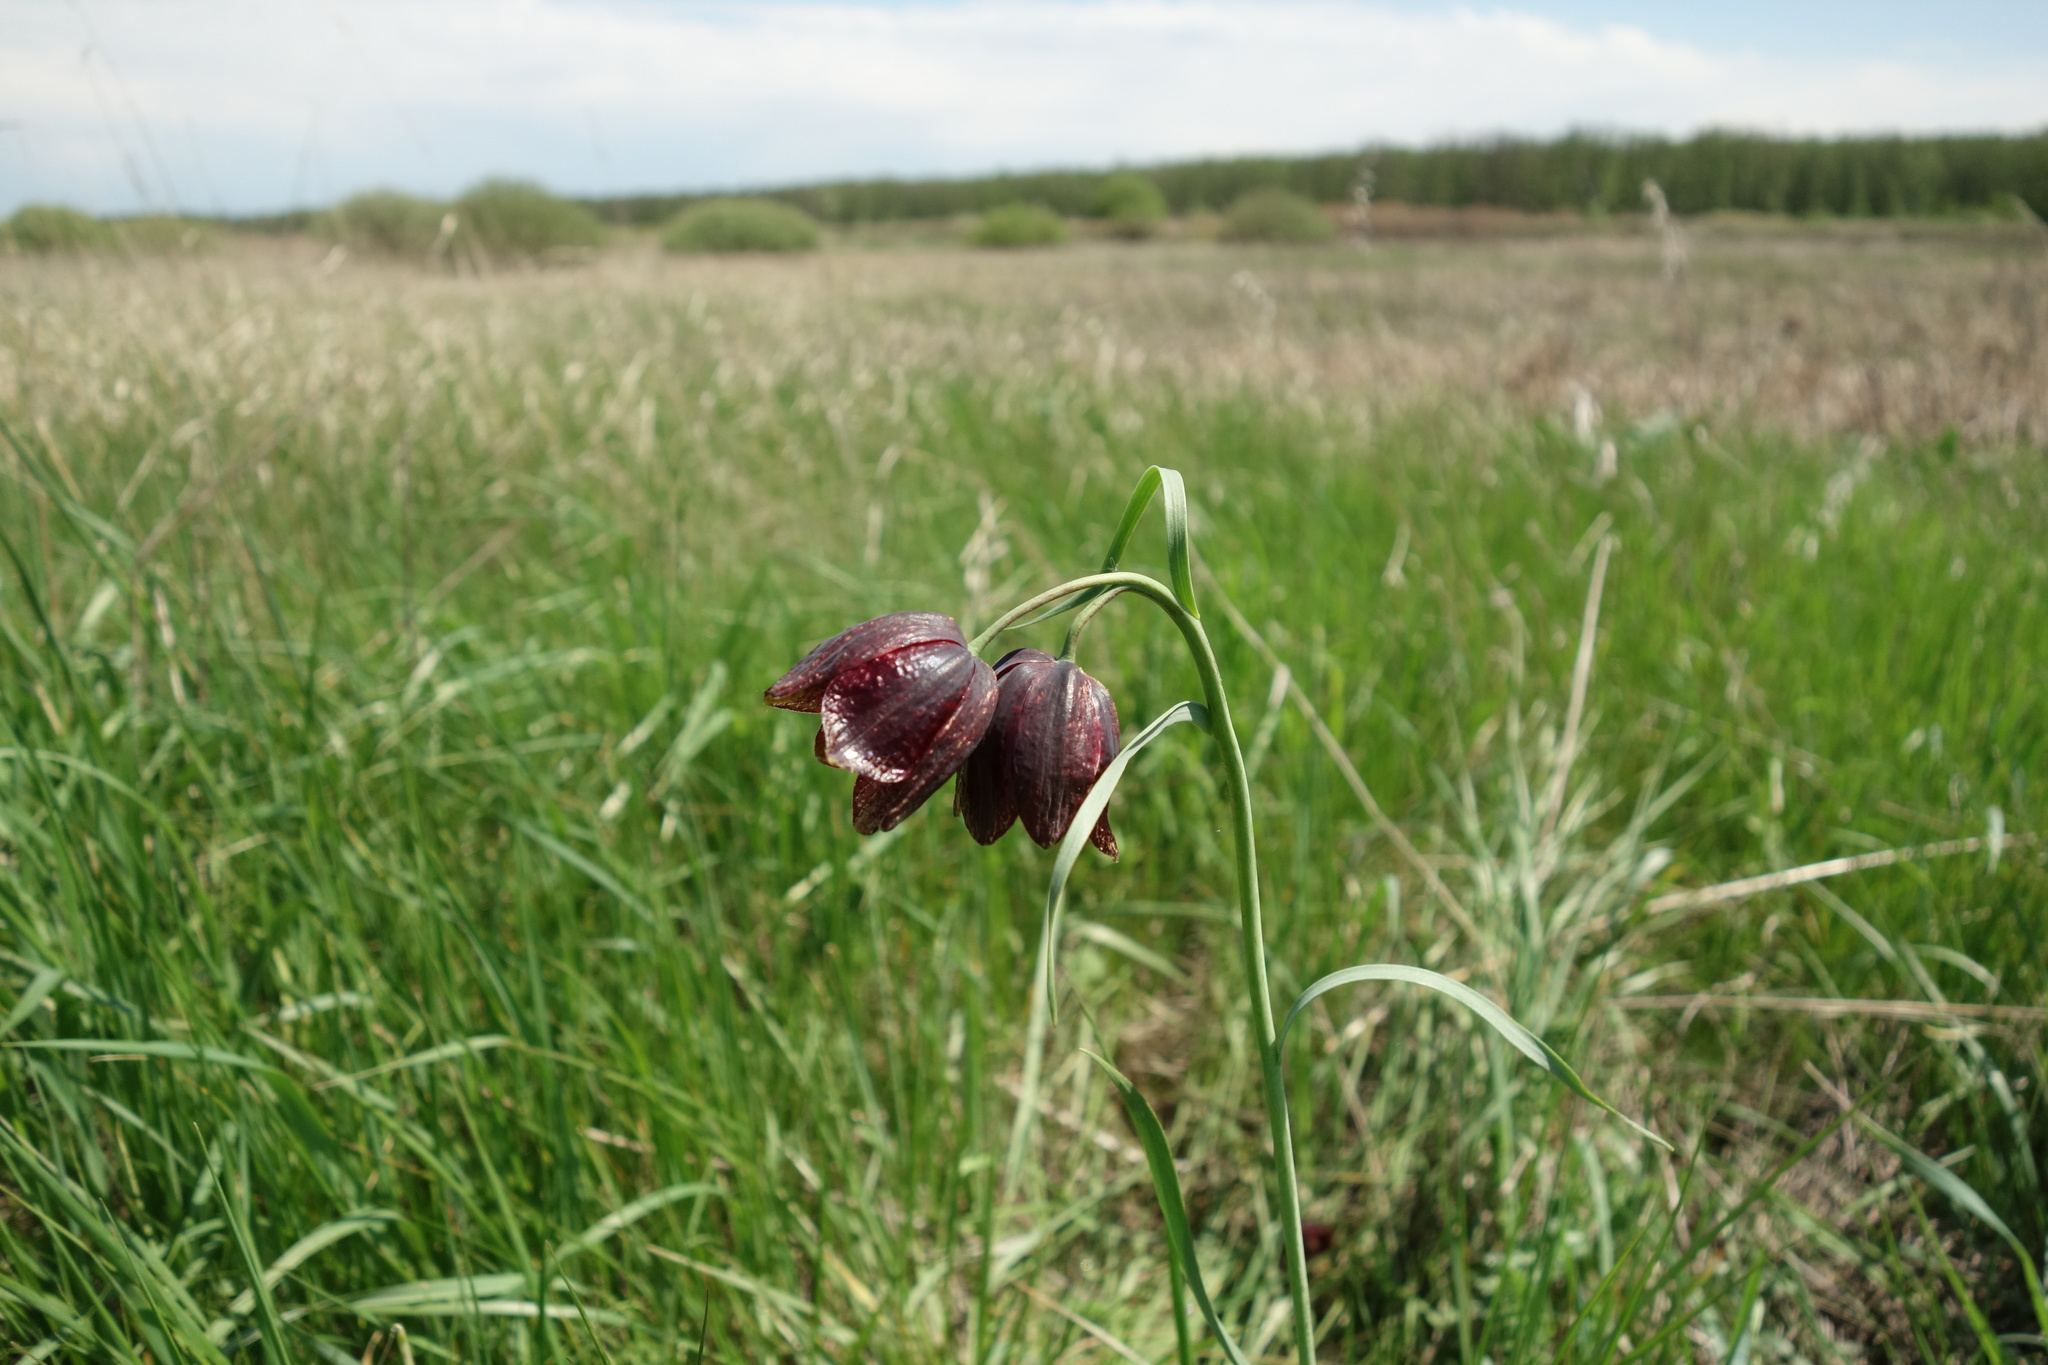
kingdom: Plantae
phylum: Tracheophyta
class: Liliopsida
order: Liliales
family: Liliaceae
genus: Fritillaria
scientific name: Fritillaria meleagroides
